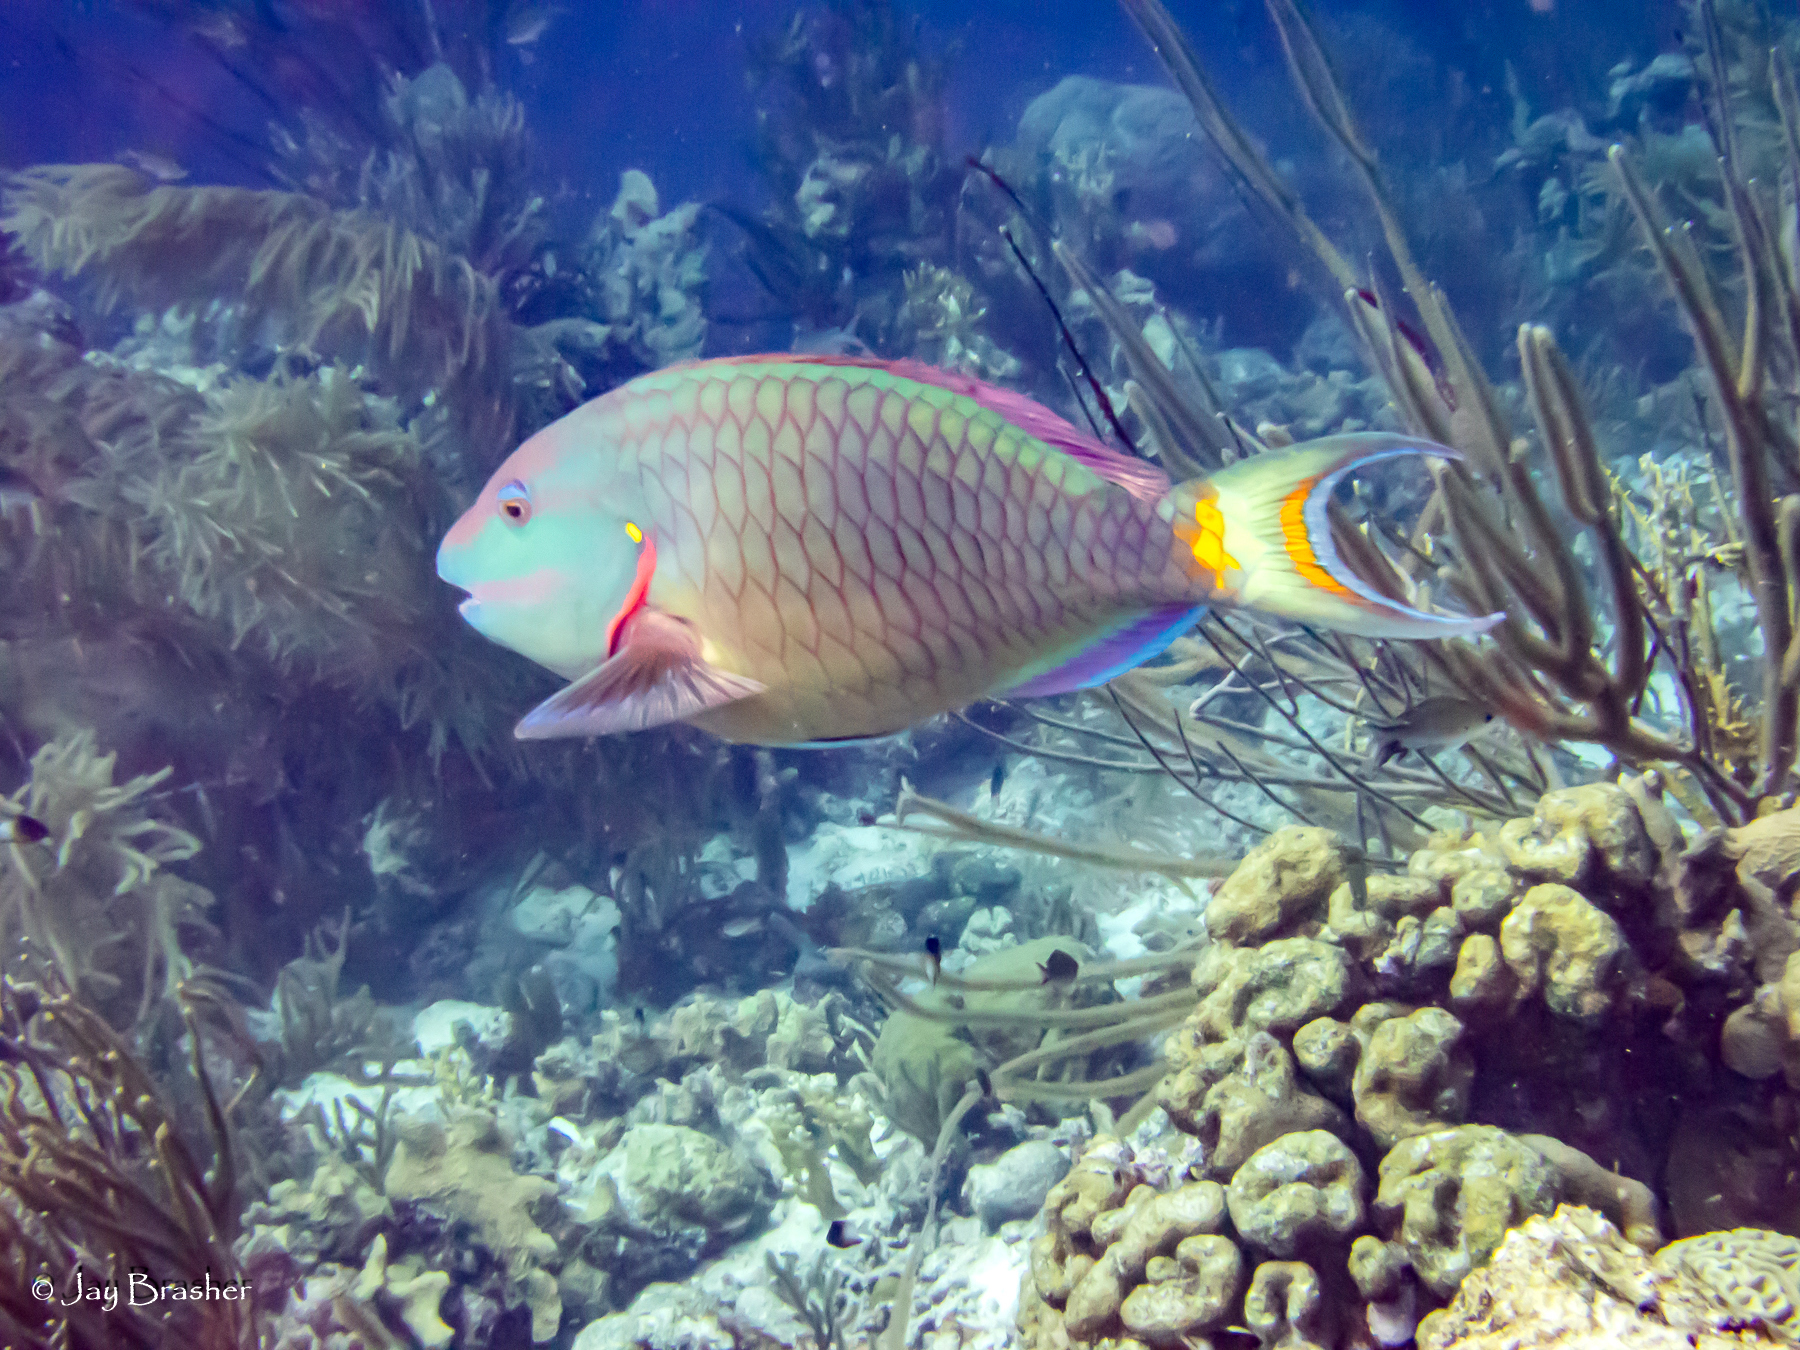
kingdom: Animalia
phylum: Chordata
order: Perciformes
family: Scaridae
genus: Sparisoma
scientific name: Sparisoma viride
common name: Stoplight parrotfish
